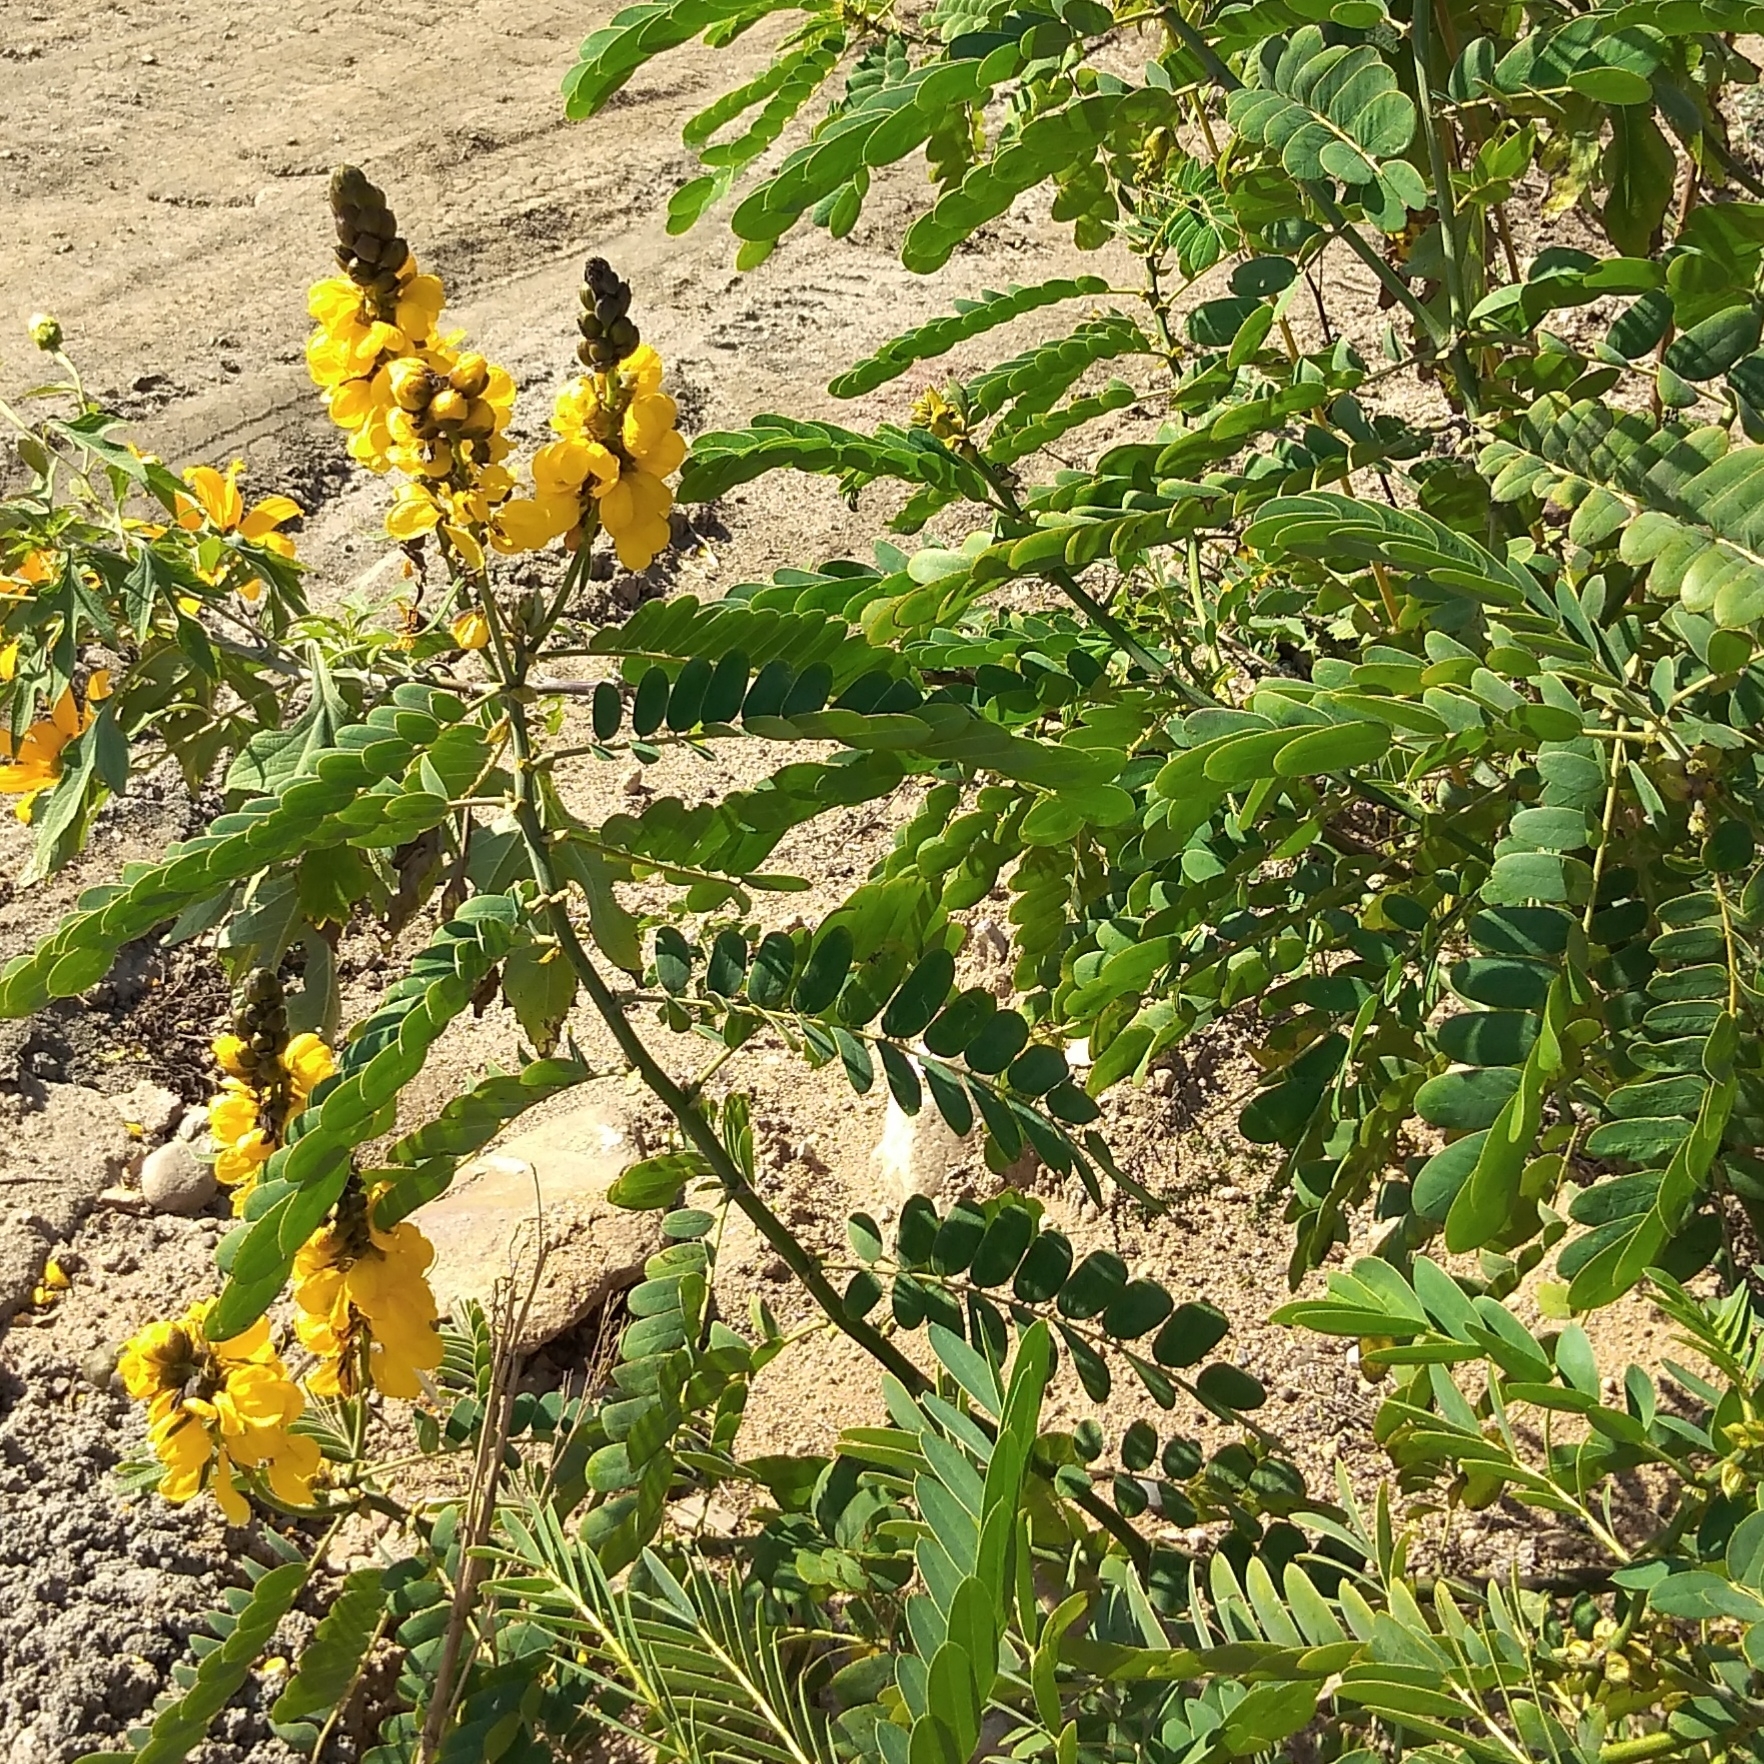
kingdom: Plantae
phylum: Tracheophyta
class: Magnoliopsida
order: Fabales
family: Fabaceae
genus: Senna
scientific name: Senna didymobotrya
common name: African senna
